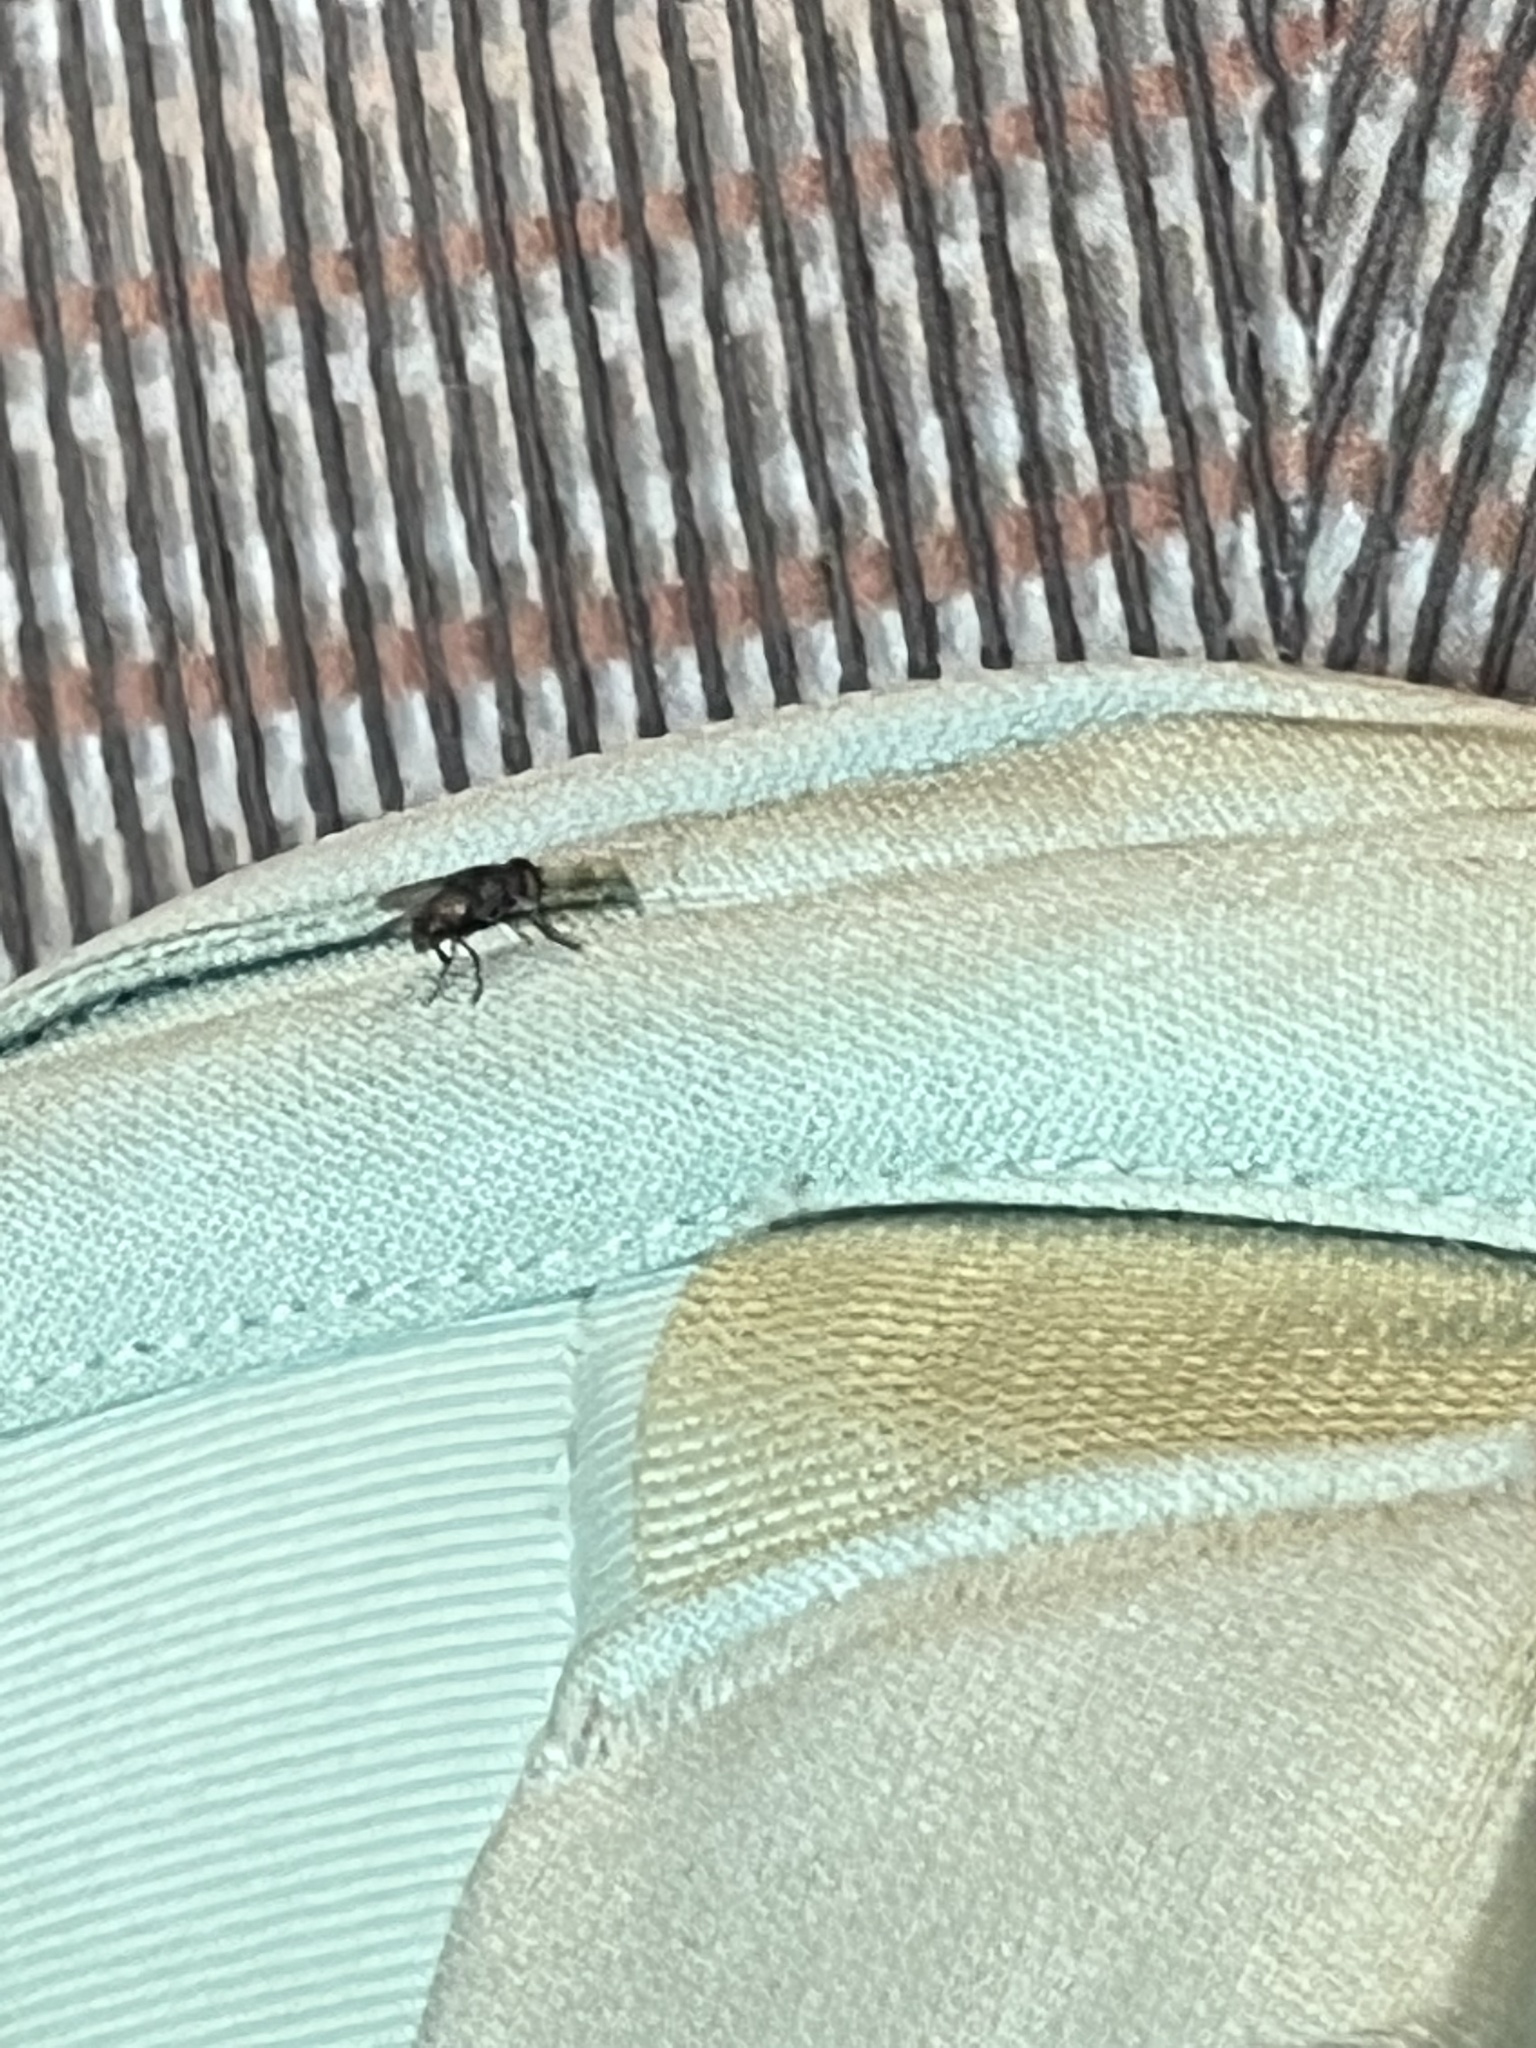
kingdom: Animalia
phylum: Arthropoda
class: Insecta
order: Diptera
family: Muscidae
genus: Musca
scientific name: Musca domestica
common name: House fly
